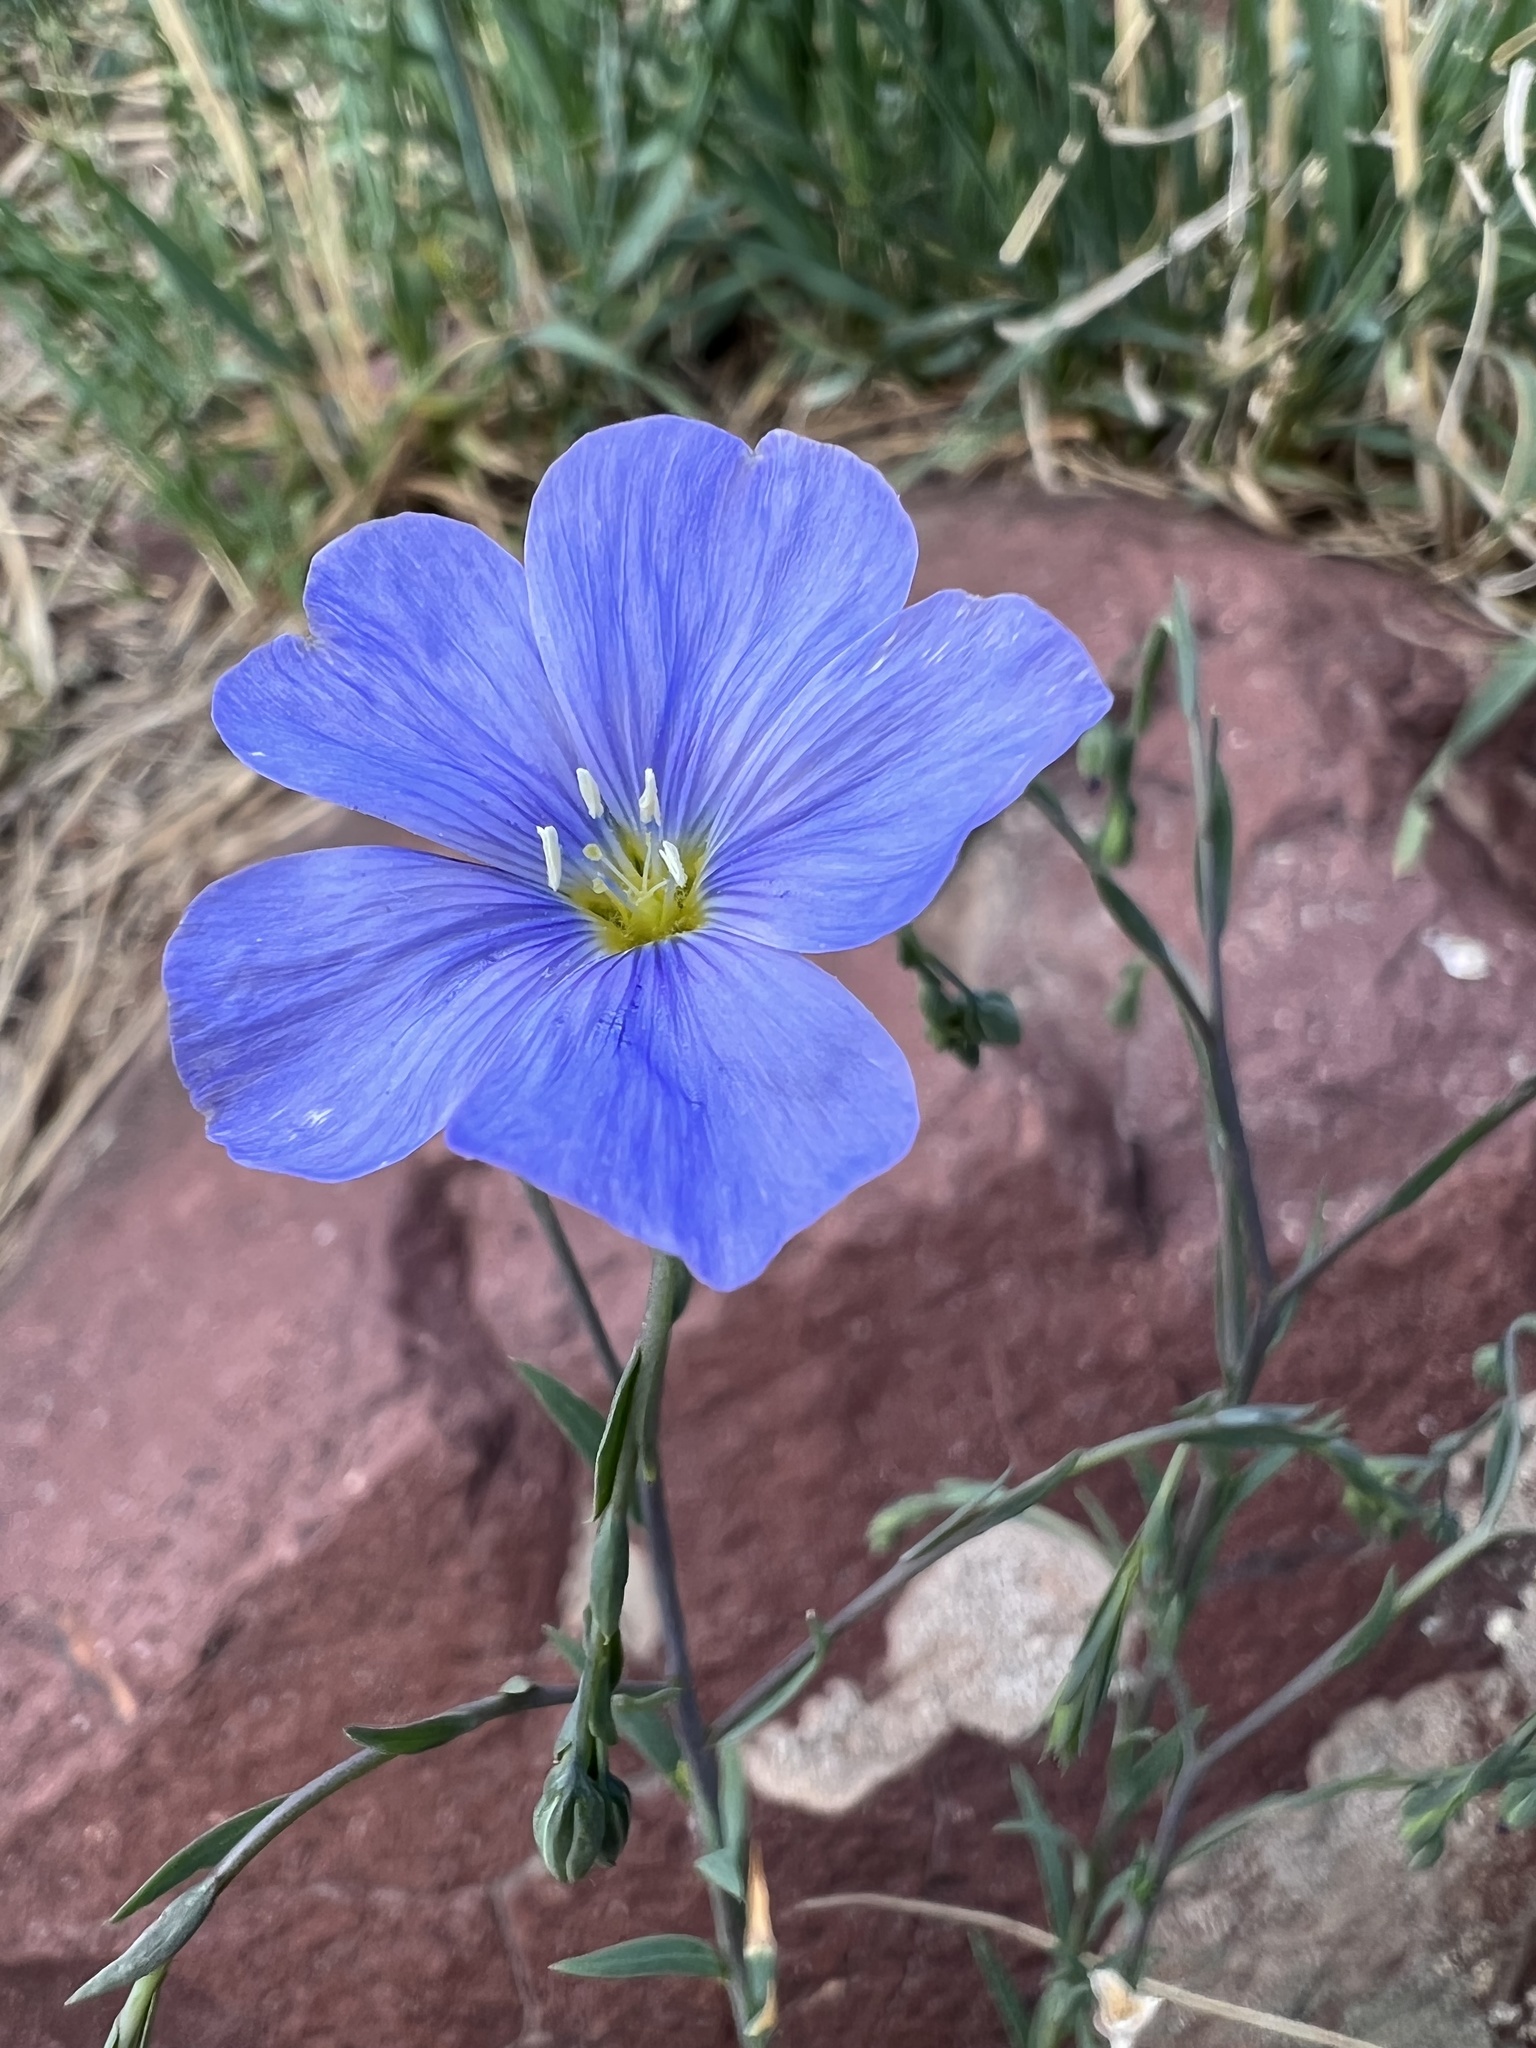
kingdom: Plantae
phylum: Tracheophyta
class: Magnoliopsida
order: Malpighiales
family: Linaceae
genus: Linum
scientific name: Linum lewisii
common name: Prairie flax
